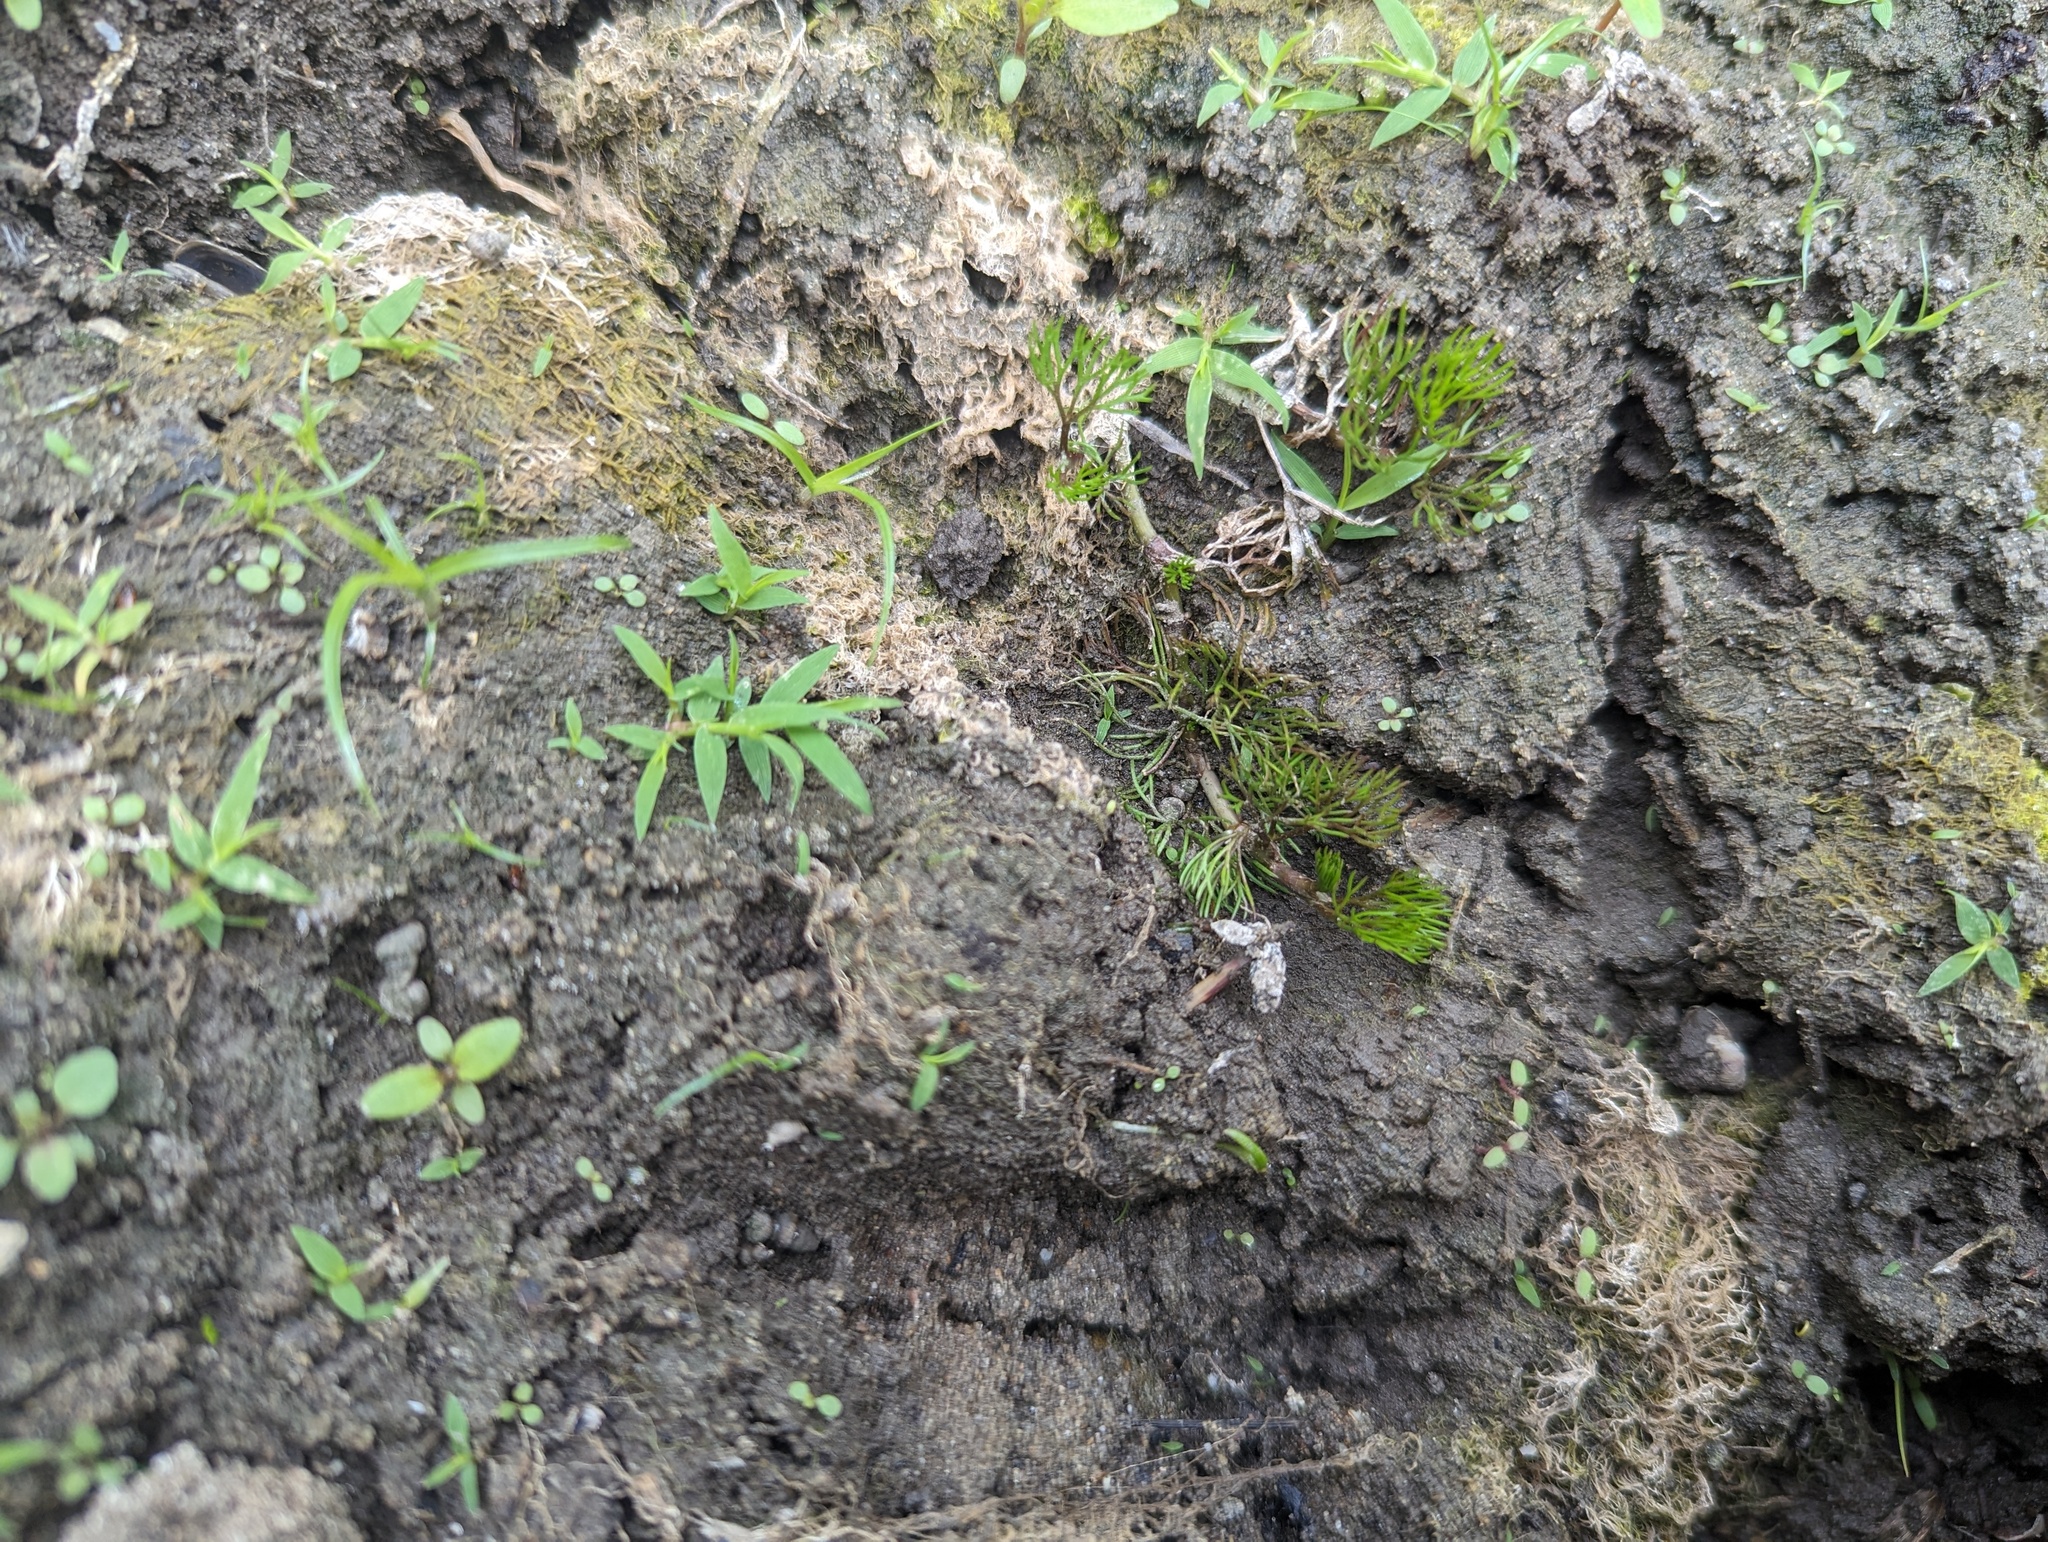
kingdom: Plantae
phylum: Tracheophyta
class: Magnoliopsida
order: Ranunculales
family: Ranunculaceae
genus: Ranunculus
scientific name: Ranunculus longirostris
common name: Curly white water-crowfoot
